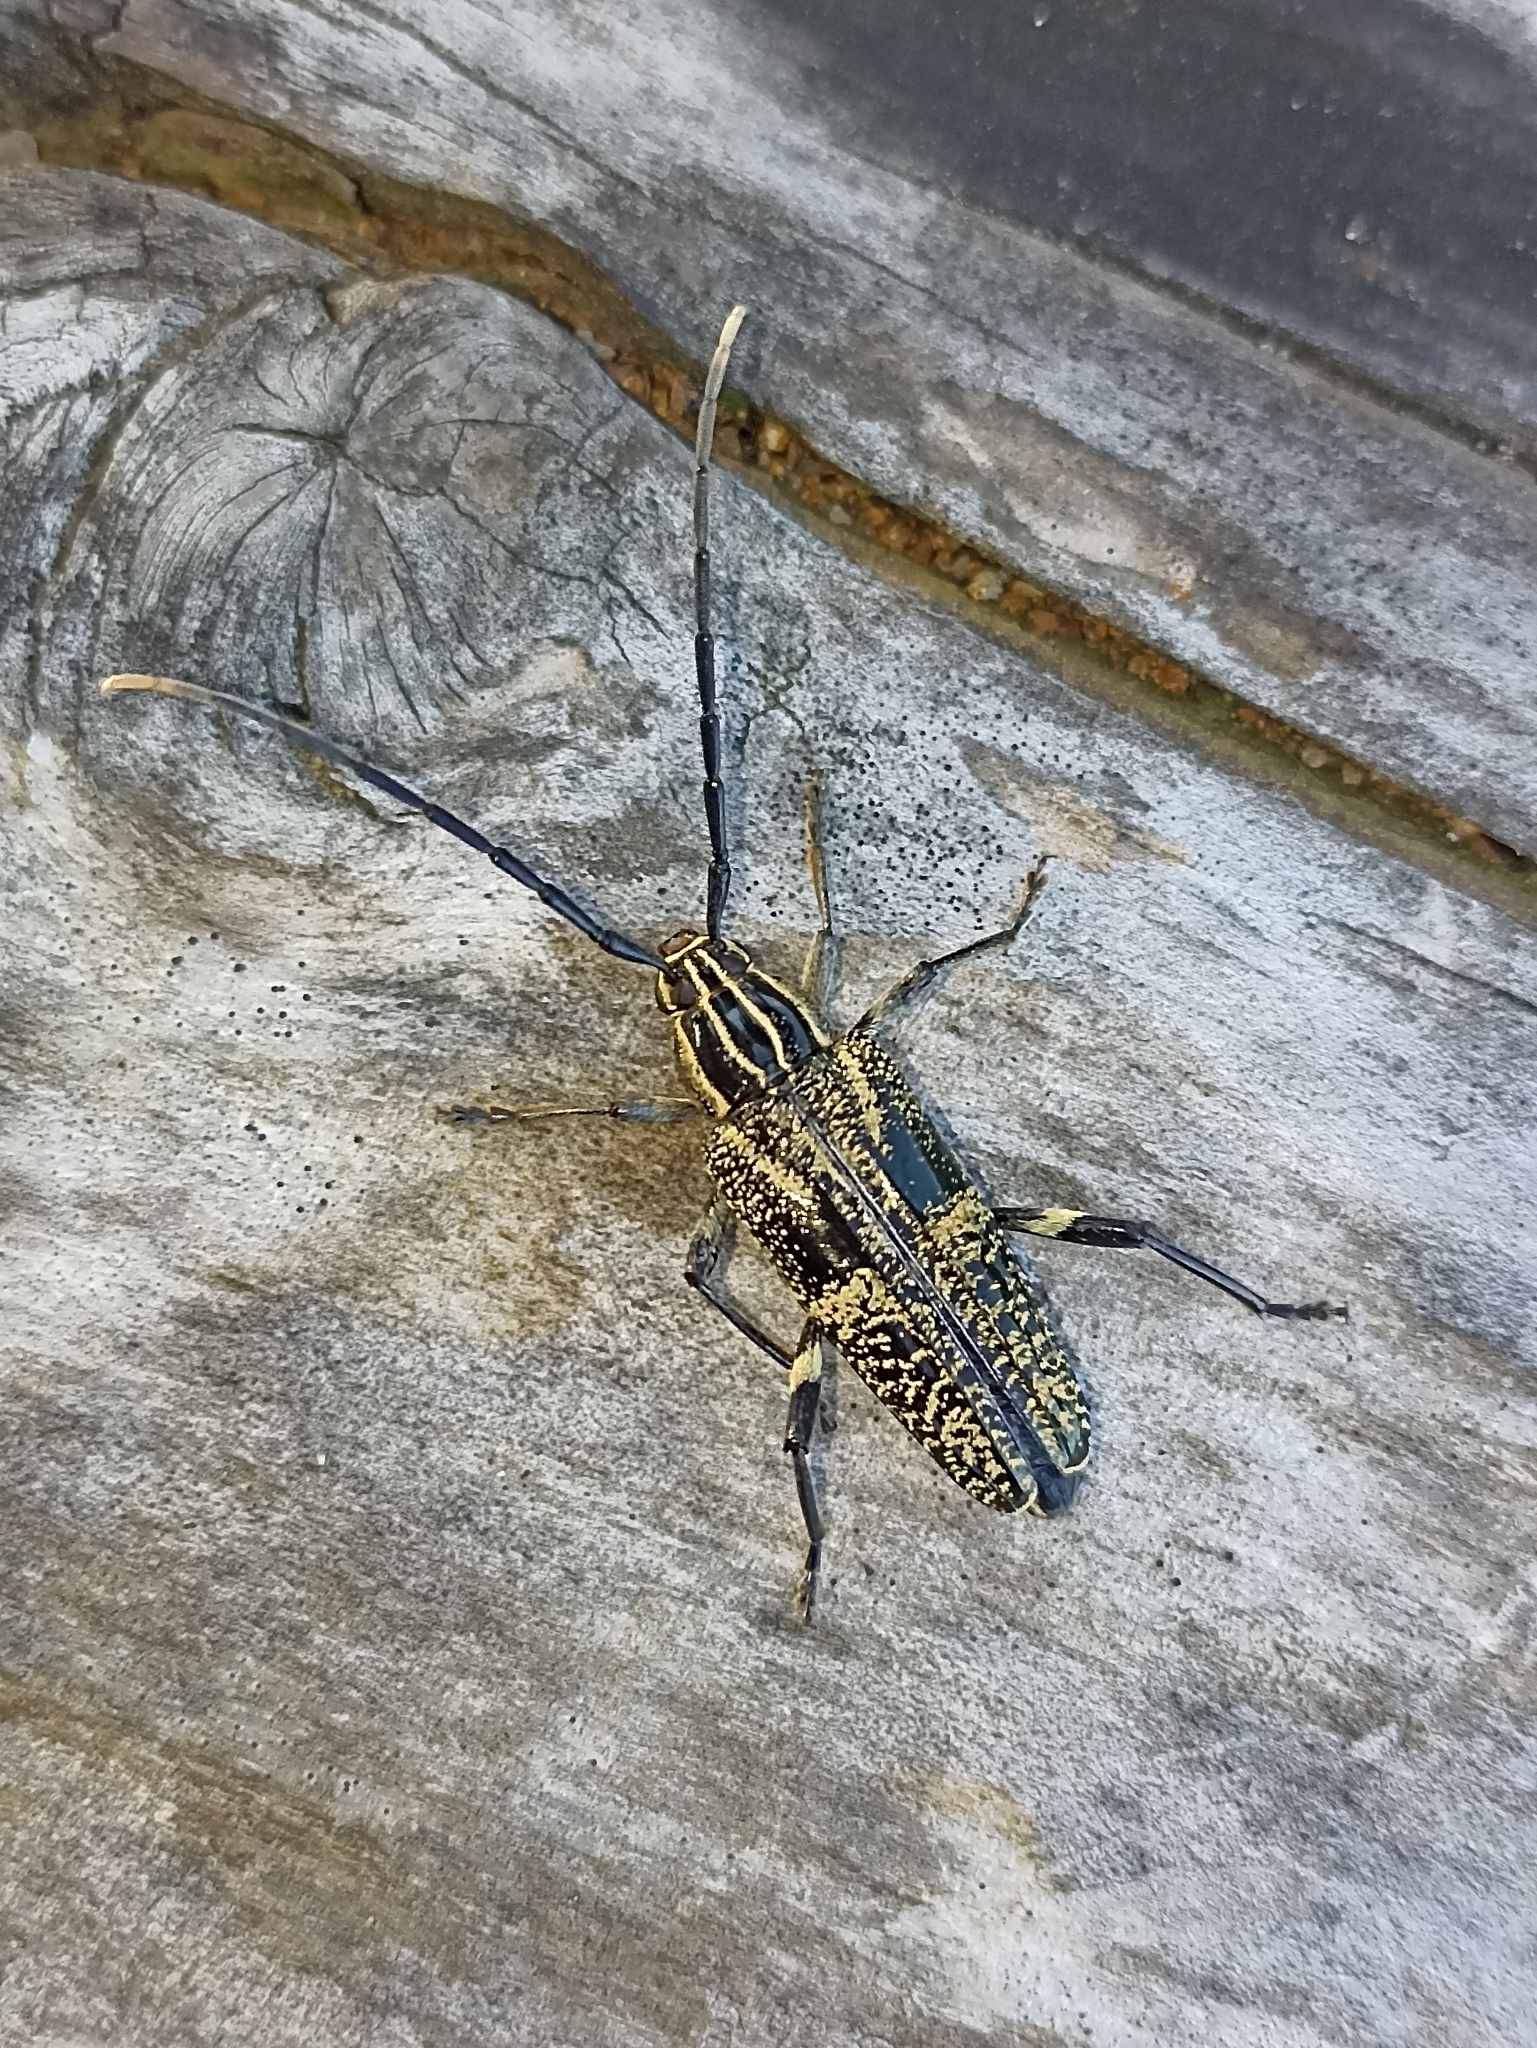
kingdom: Animalia
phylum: Arthropoda
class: Insecta
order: Coleoptera
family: Cerambycidae
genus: Coptomma
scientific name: Coptomma variegatum
